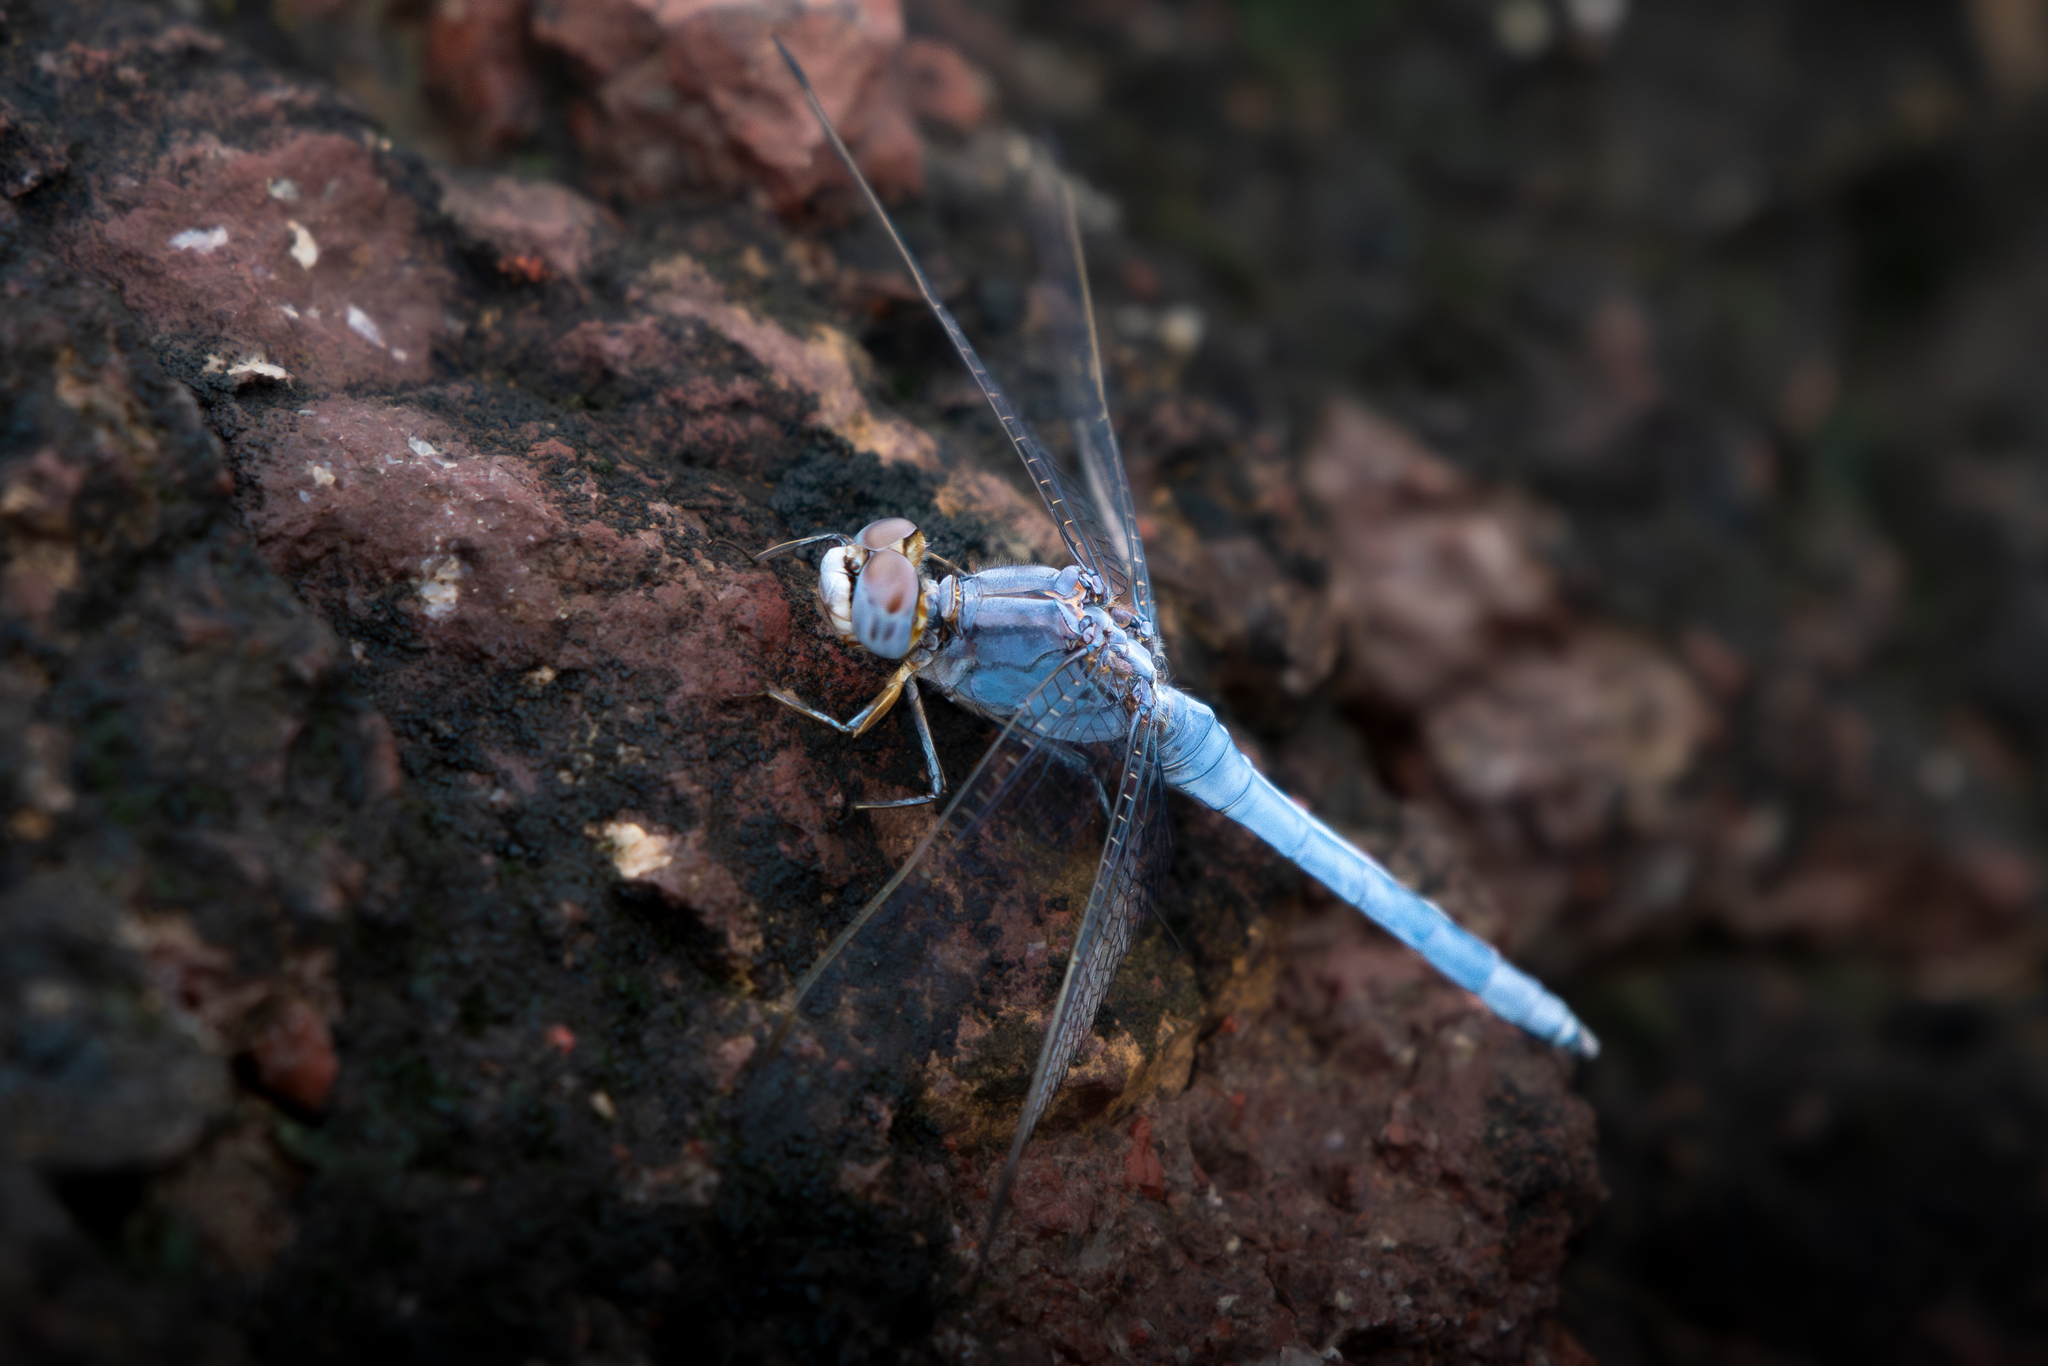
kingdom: Animalia
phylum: Arthropoda
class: Insecta
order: Odonata
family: Libellulidae
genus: Orthetrum
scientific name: Orthetrum taeniolatum
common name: Small skimmer
